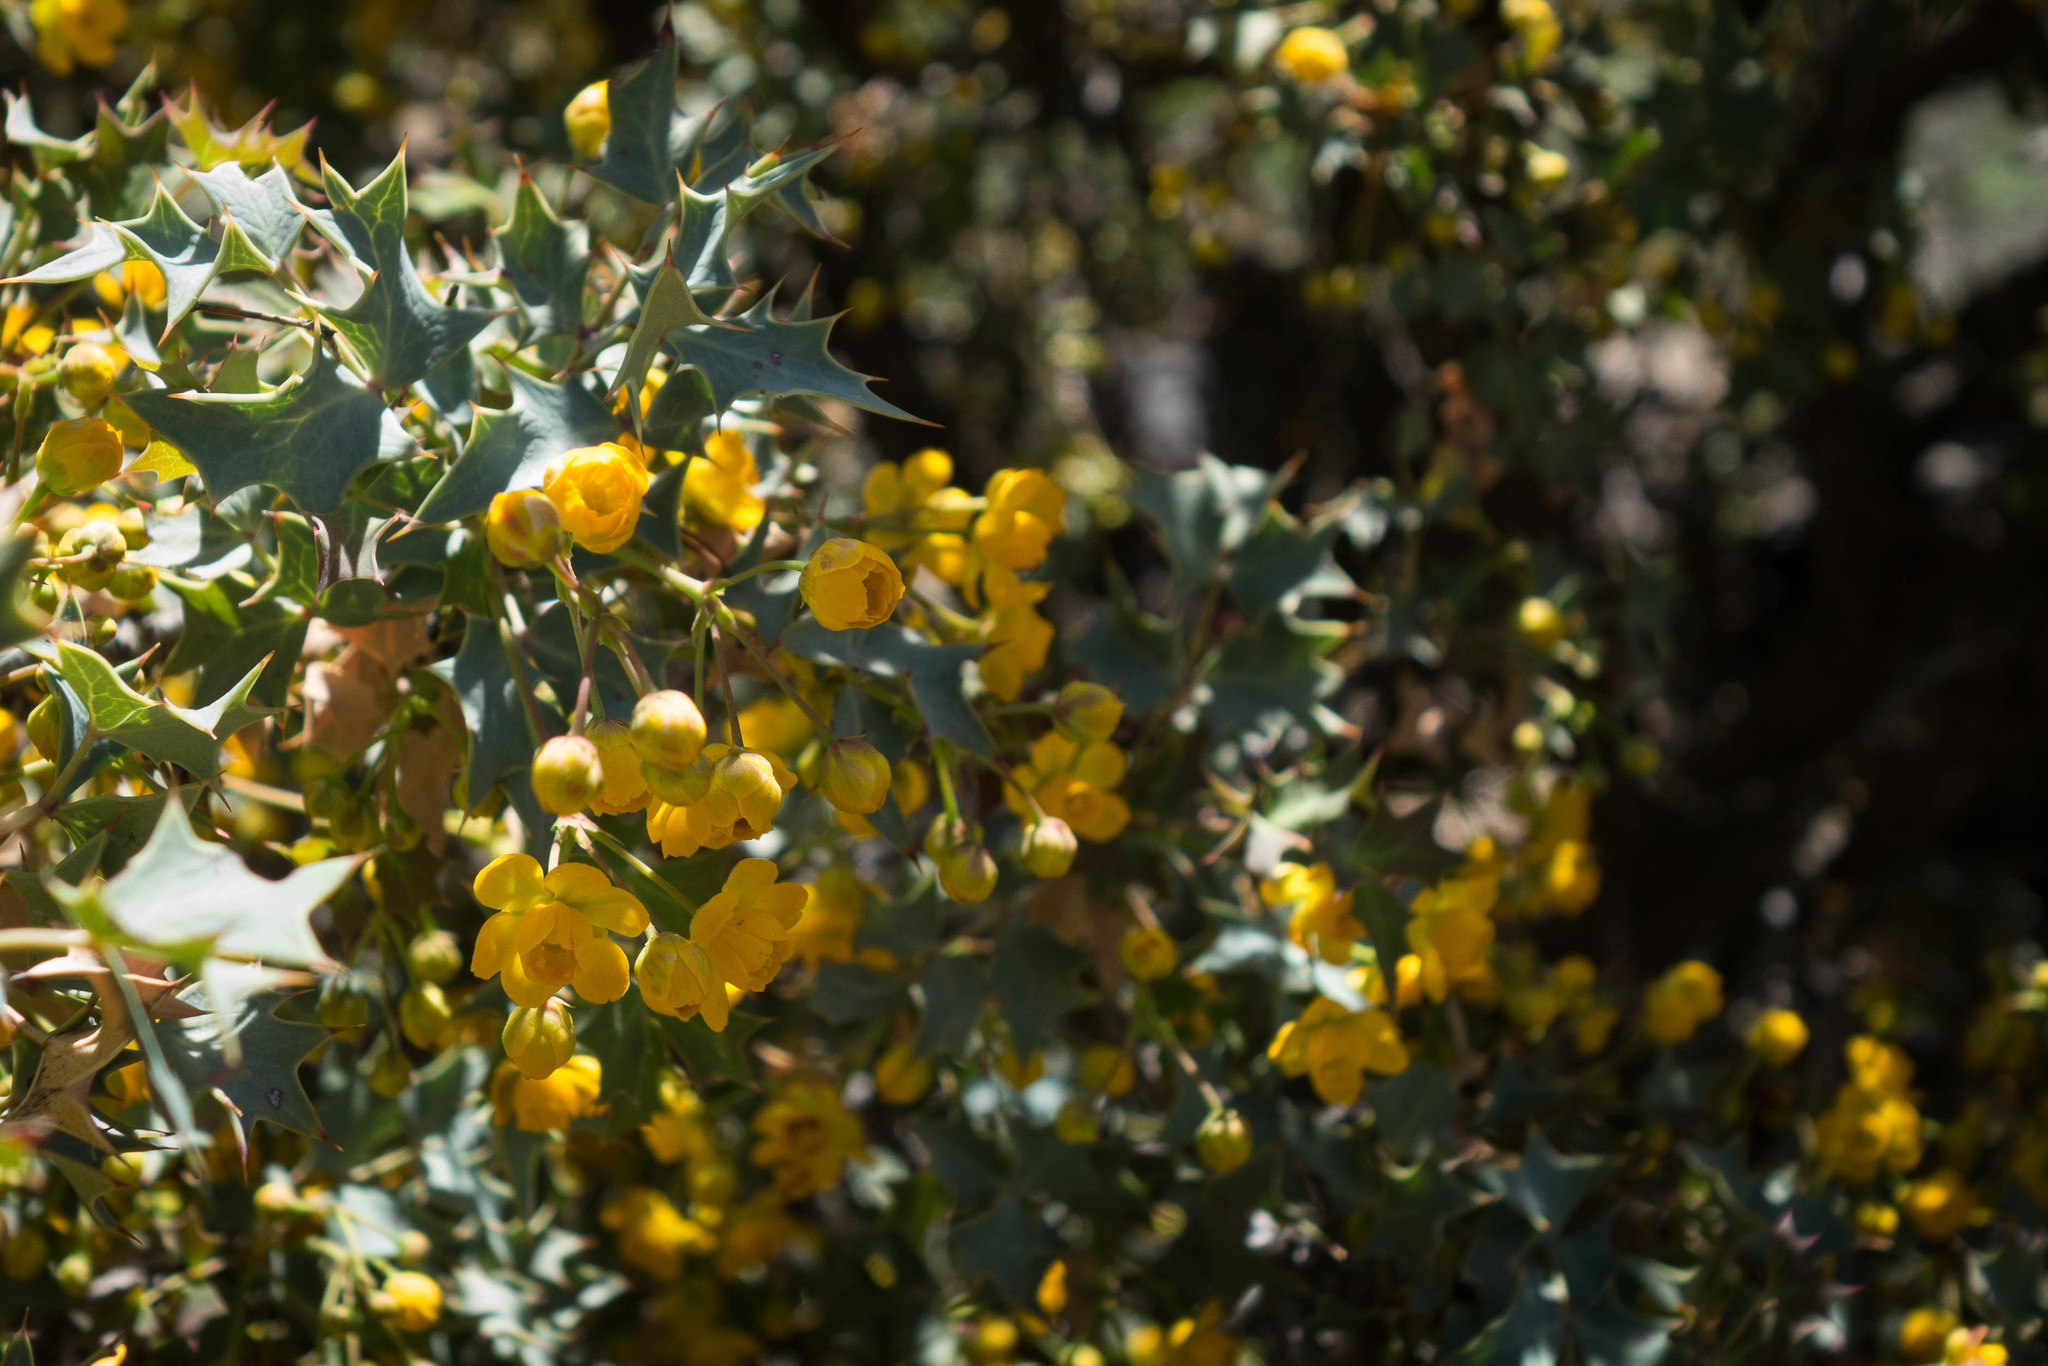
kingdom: Plantae
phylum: Tracheophyta
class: Magnoliopsida
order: Ranunculales
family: Berberidaceae
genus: Alloberberis
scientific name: Alloberberis fremontii
